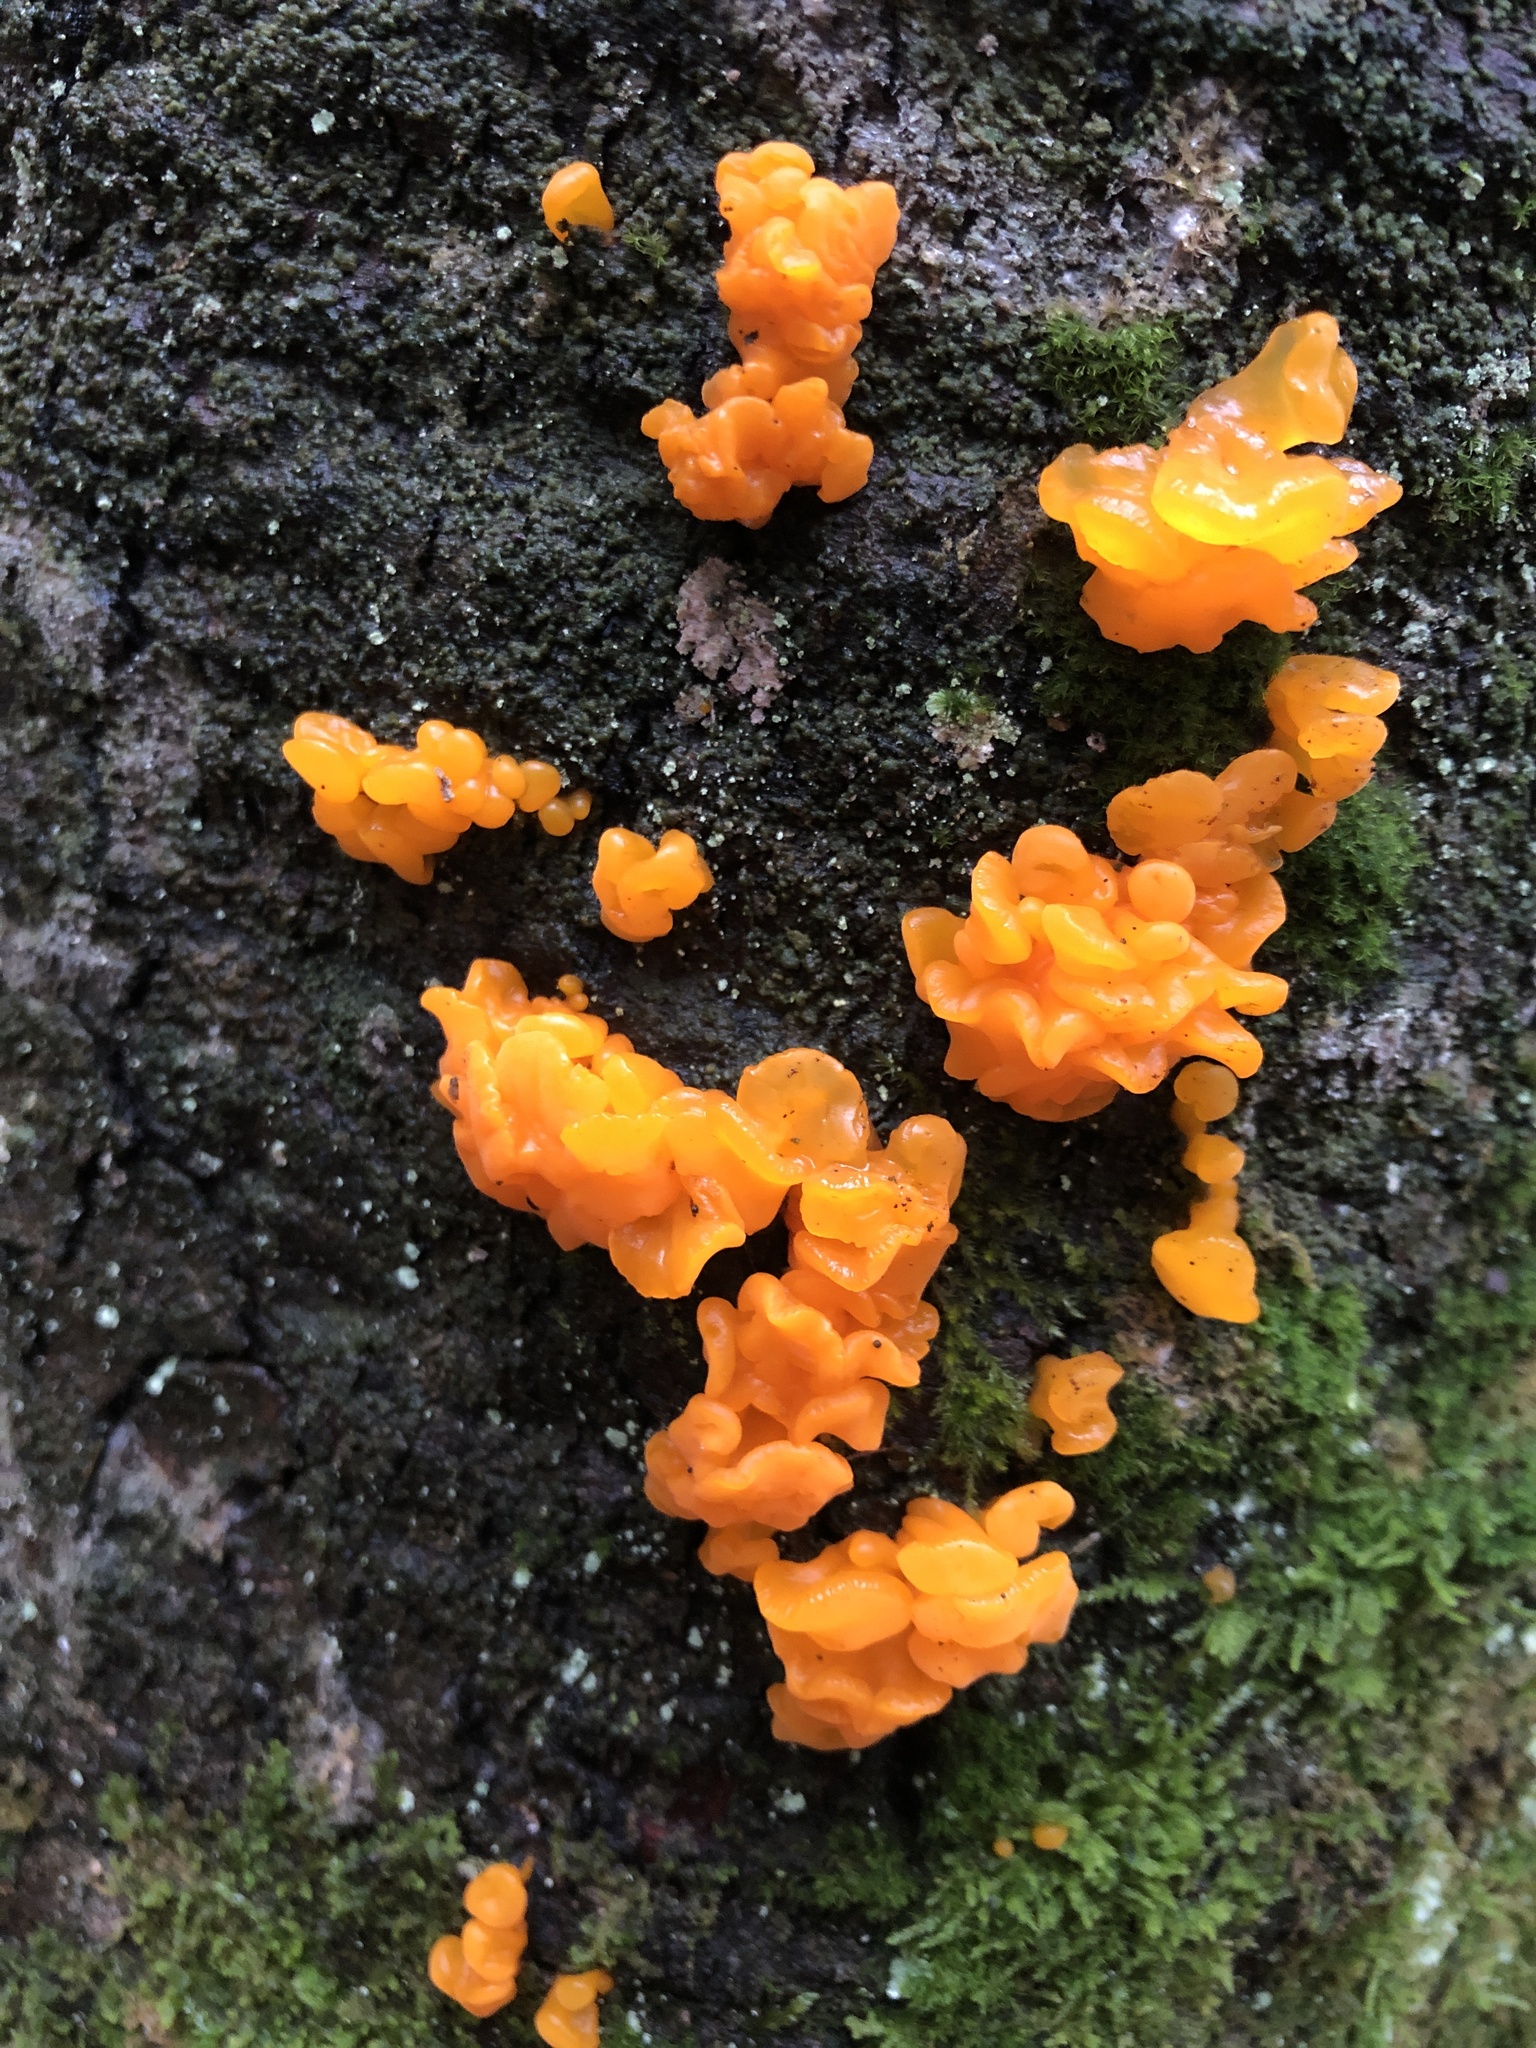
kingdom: Fungi
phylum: Basidiomycota
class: Dacrymycetes
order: Dacrymycetales
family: Dacrymycetaceae
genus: Dacrymyces
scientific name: Dacrymyces chrysospermus
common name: Orange jelly spot
